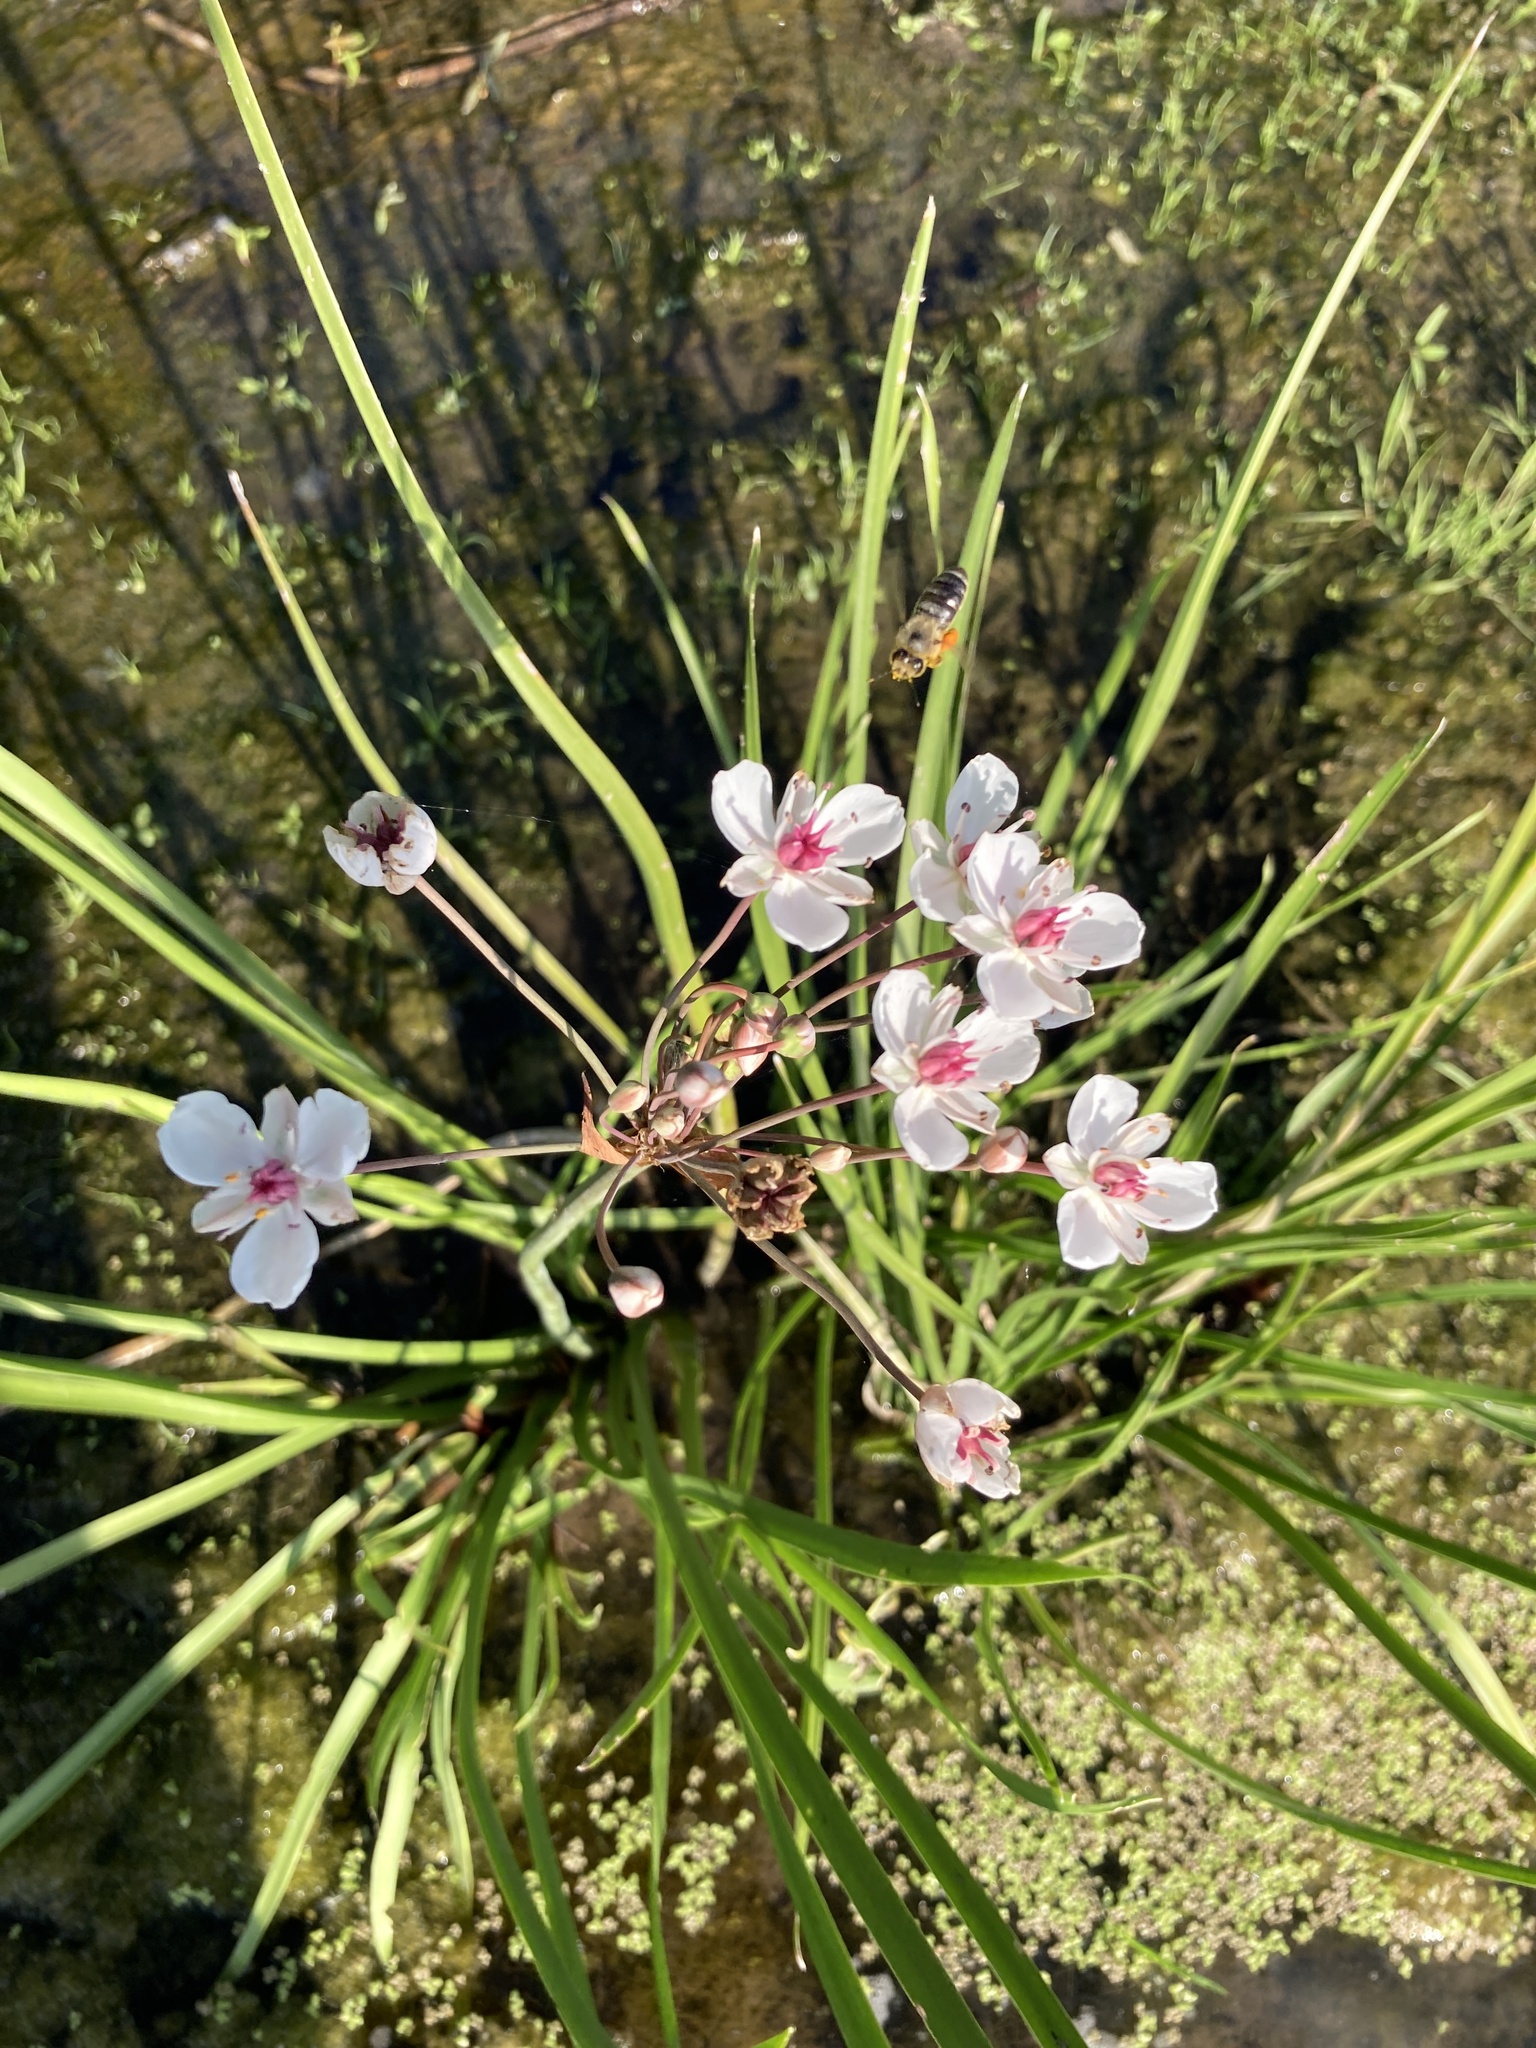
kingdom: Plantae
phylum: Tracheophyta
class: Liliopsida
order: Alismatales
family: Butomaceae
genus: Butomus
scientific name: Butomus umbellatus
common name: Flowering-rush
